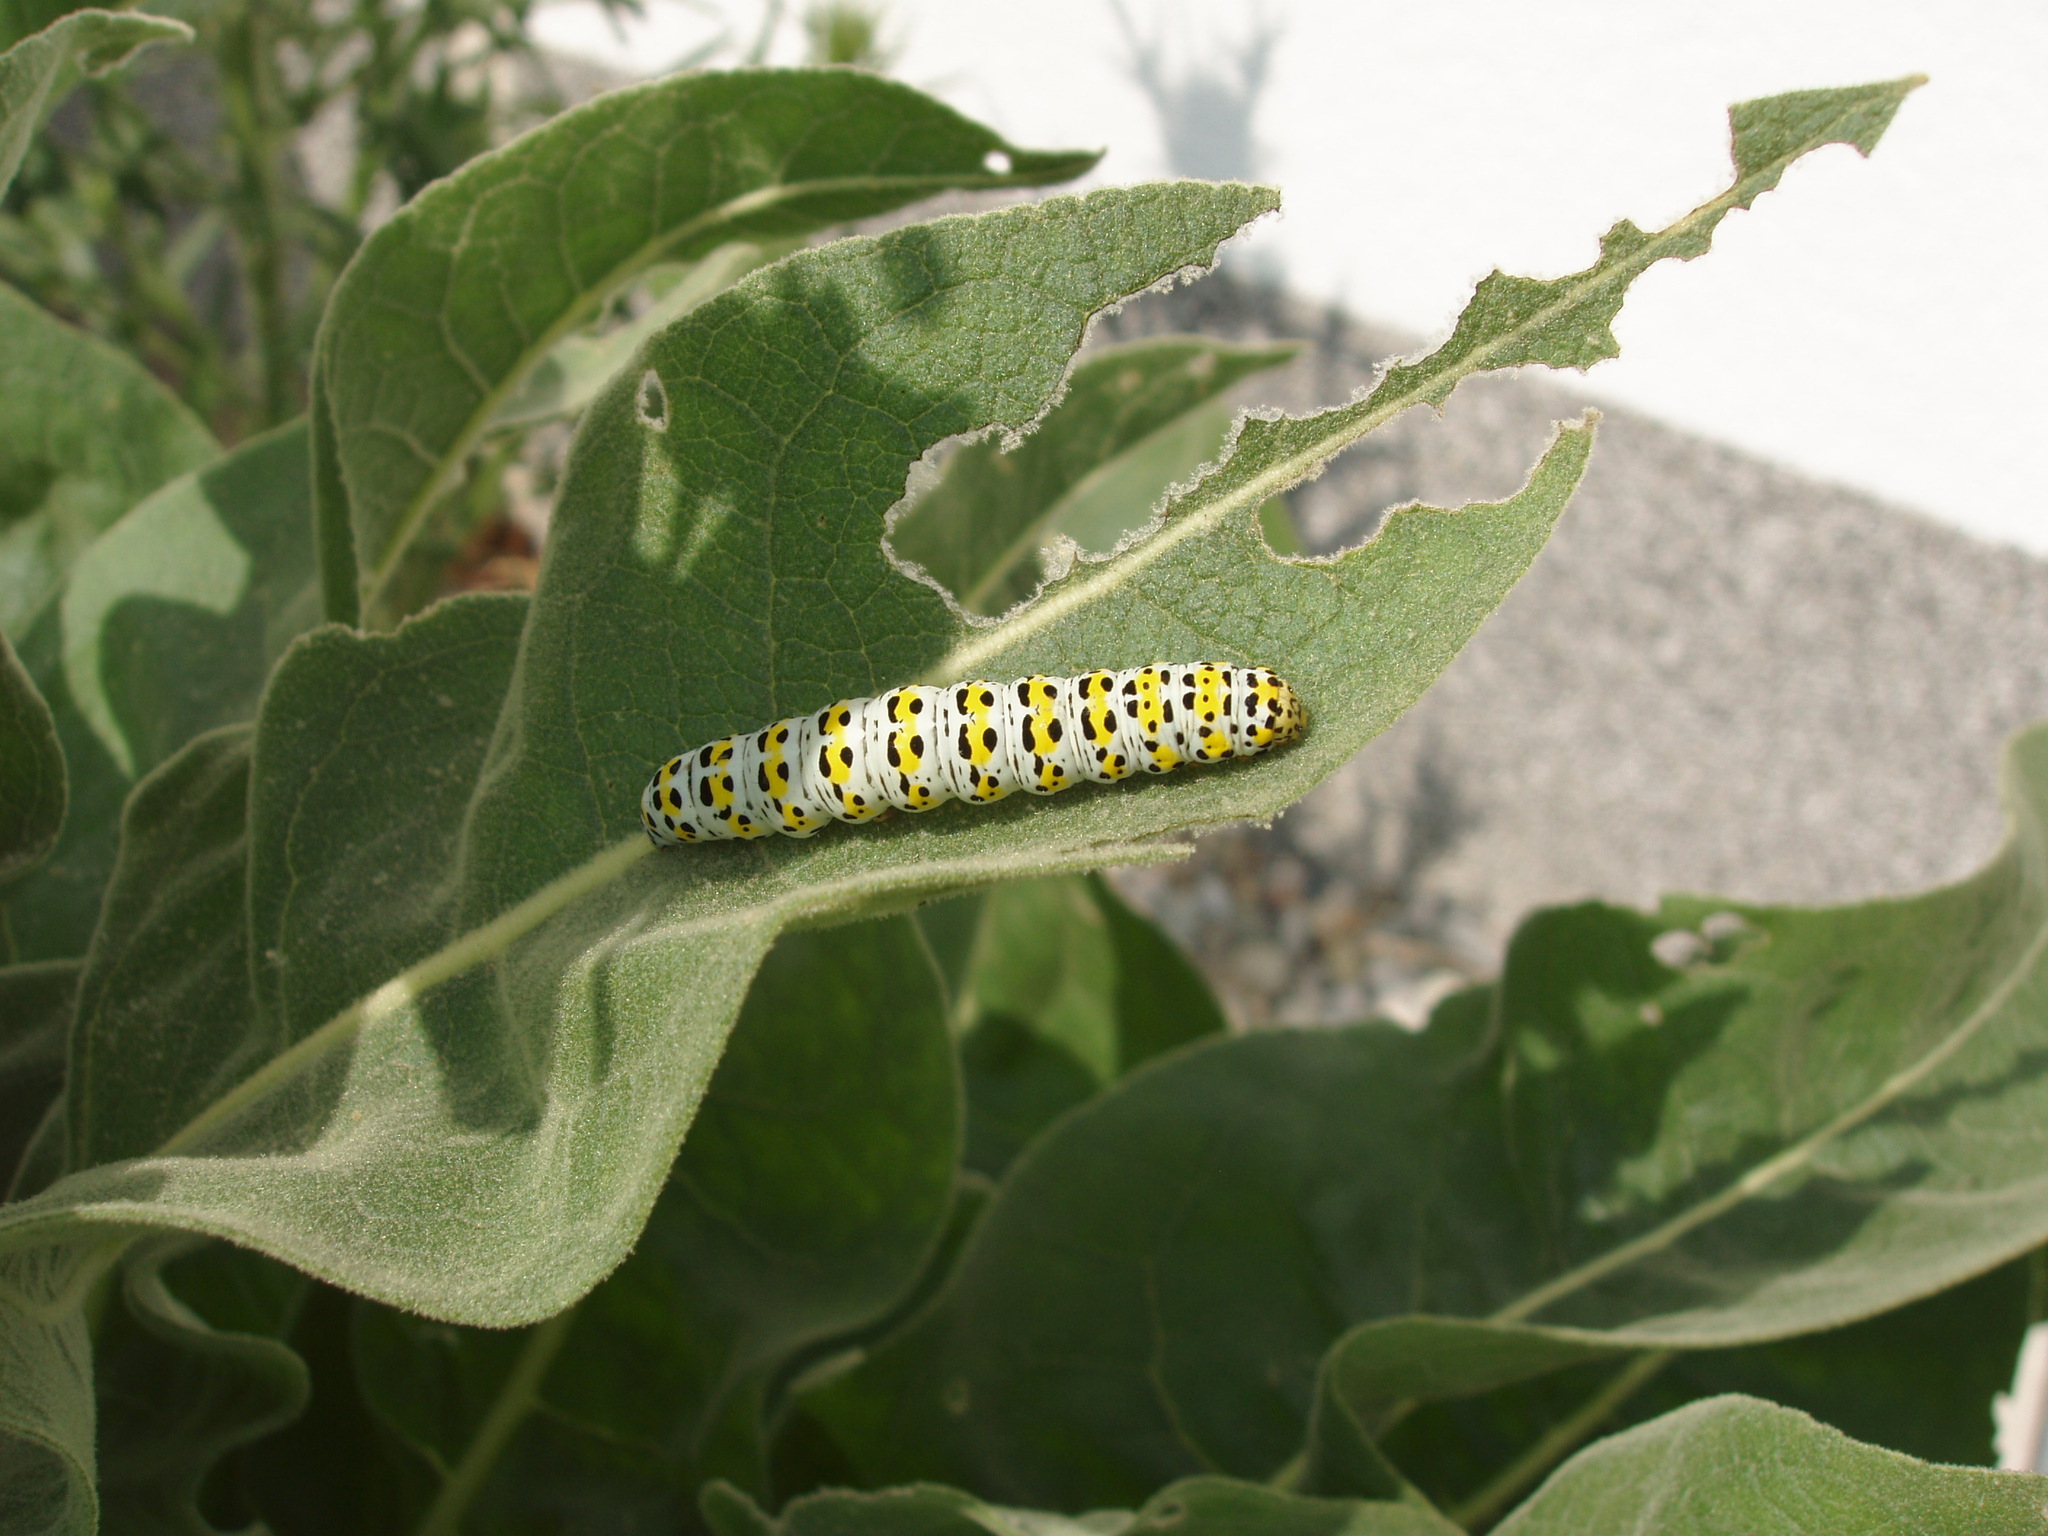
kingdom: Animalia
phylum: Arthropoda
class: Insecta
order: Lepidoptera
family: Noctuidae
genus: Cucullia
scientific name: Cucullia verbasci
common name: Mullein
